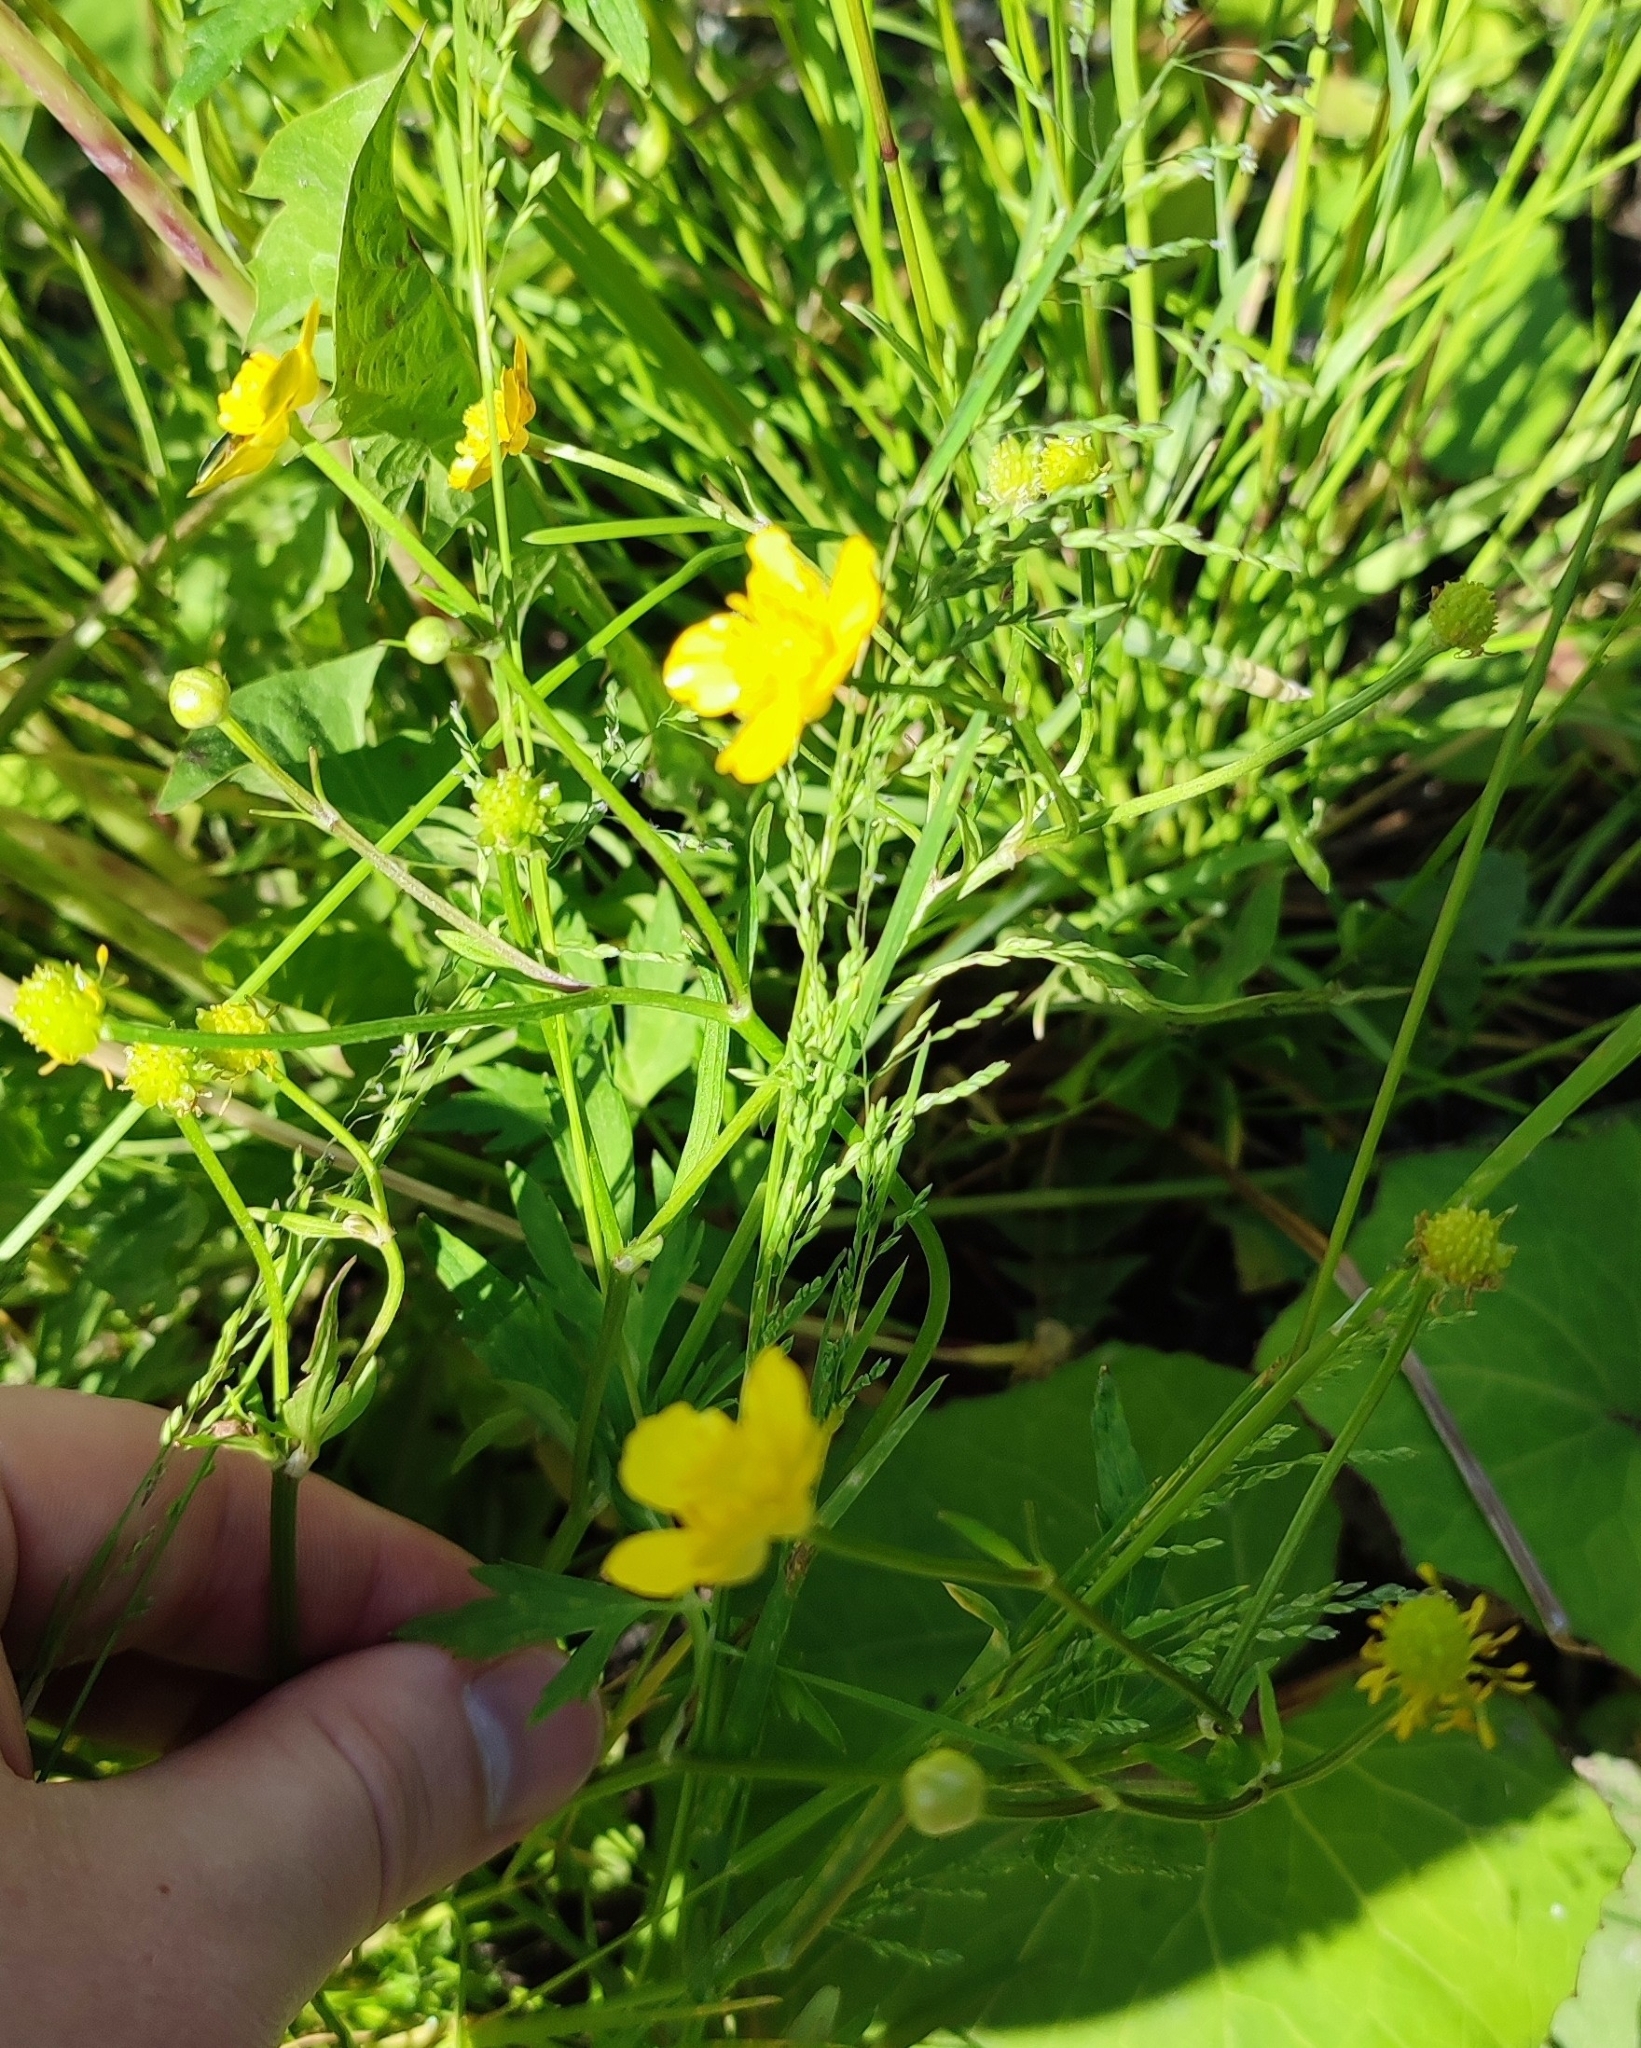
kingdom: Plantae
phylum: Tracheophyta
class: Magnoliopsida
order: Ranunculales
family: Ranunculaceae
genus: Ranunculus
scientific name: Ranunculus repens
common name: Creeping buttercup
